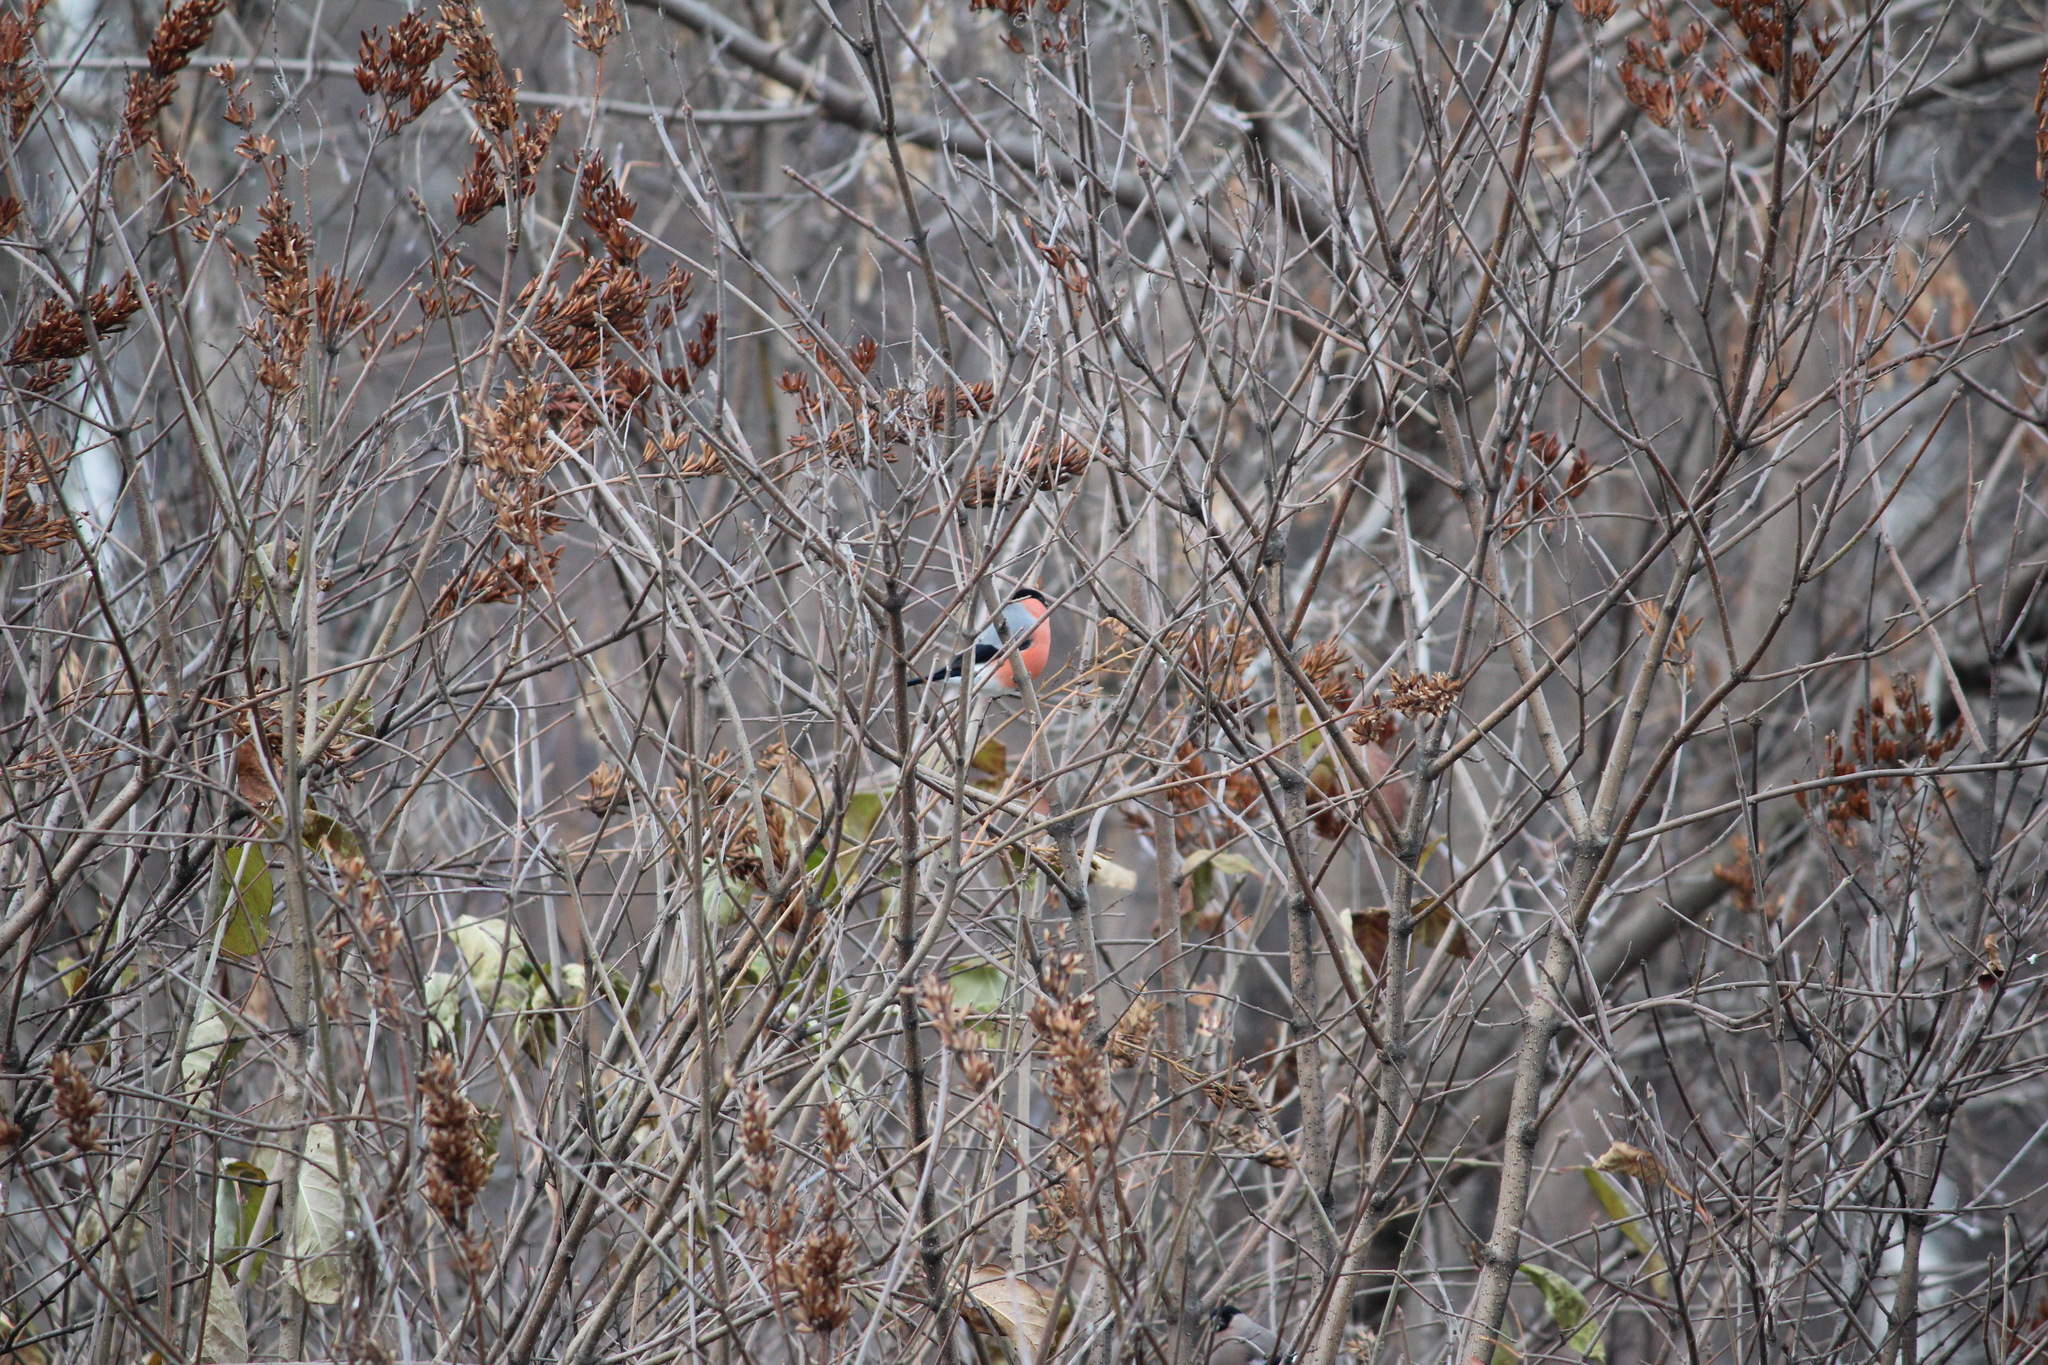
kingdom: Animalia
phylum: Chordata
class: Aves
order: Passeriformes
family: Fringillidae
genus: Pyrrhula
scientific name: Pyrrhula pyrrhula
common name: Eurasian bullfinch
